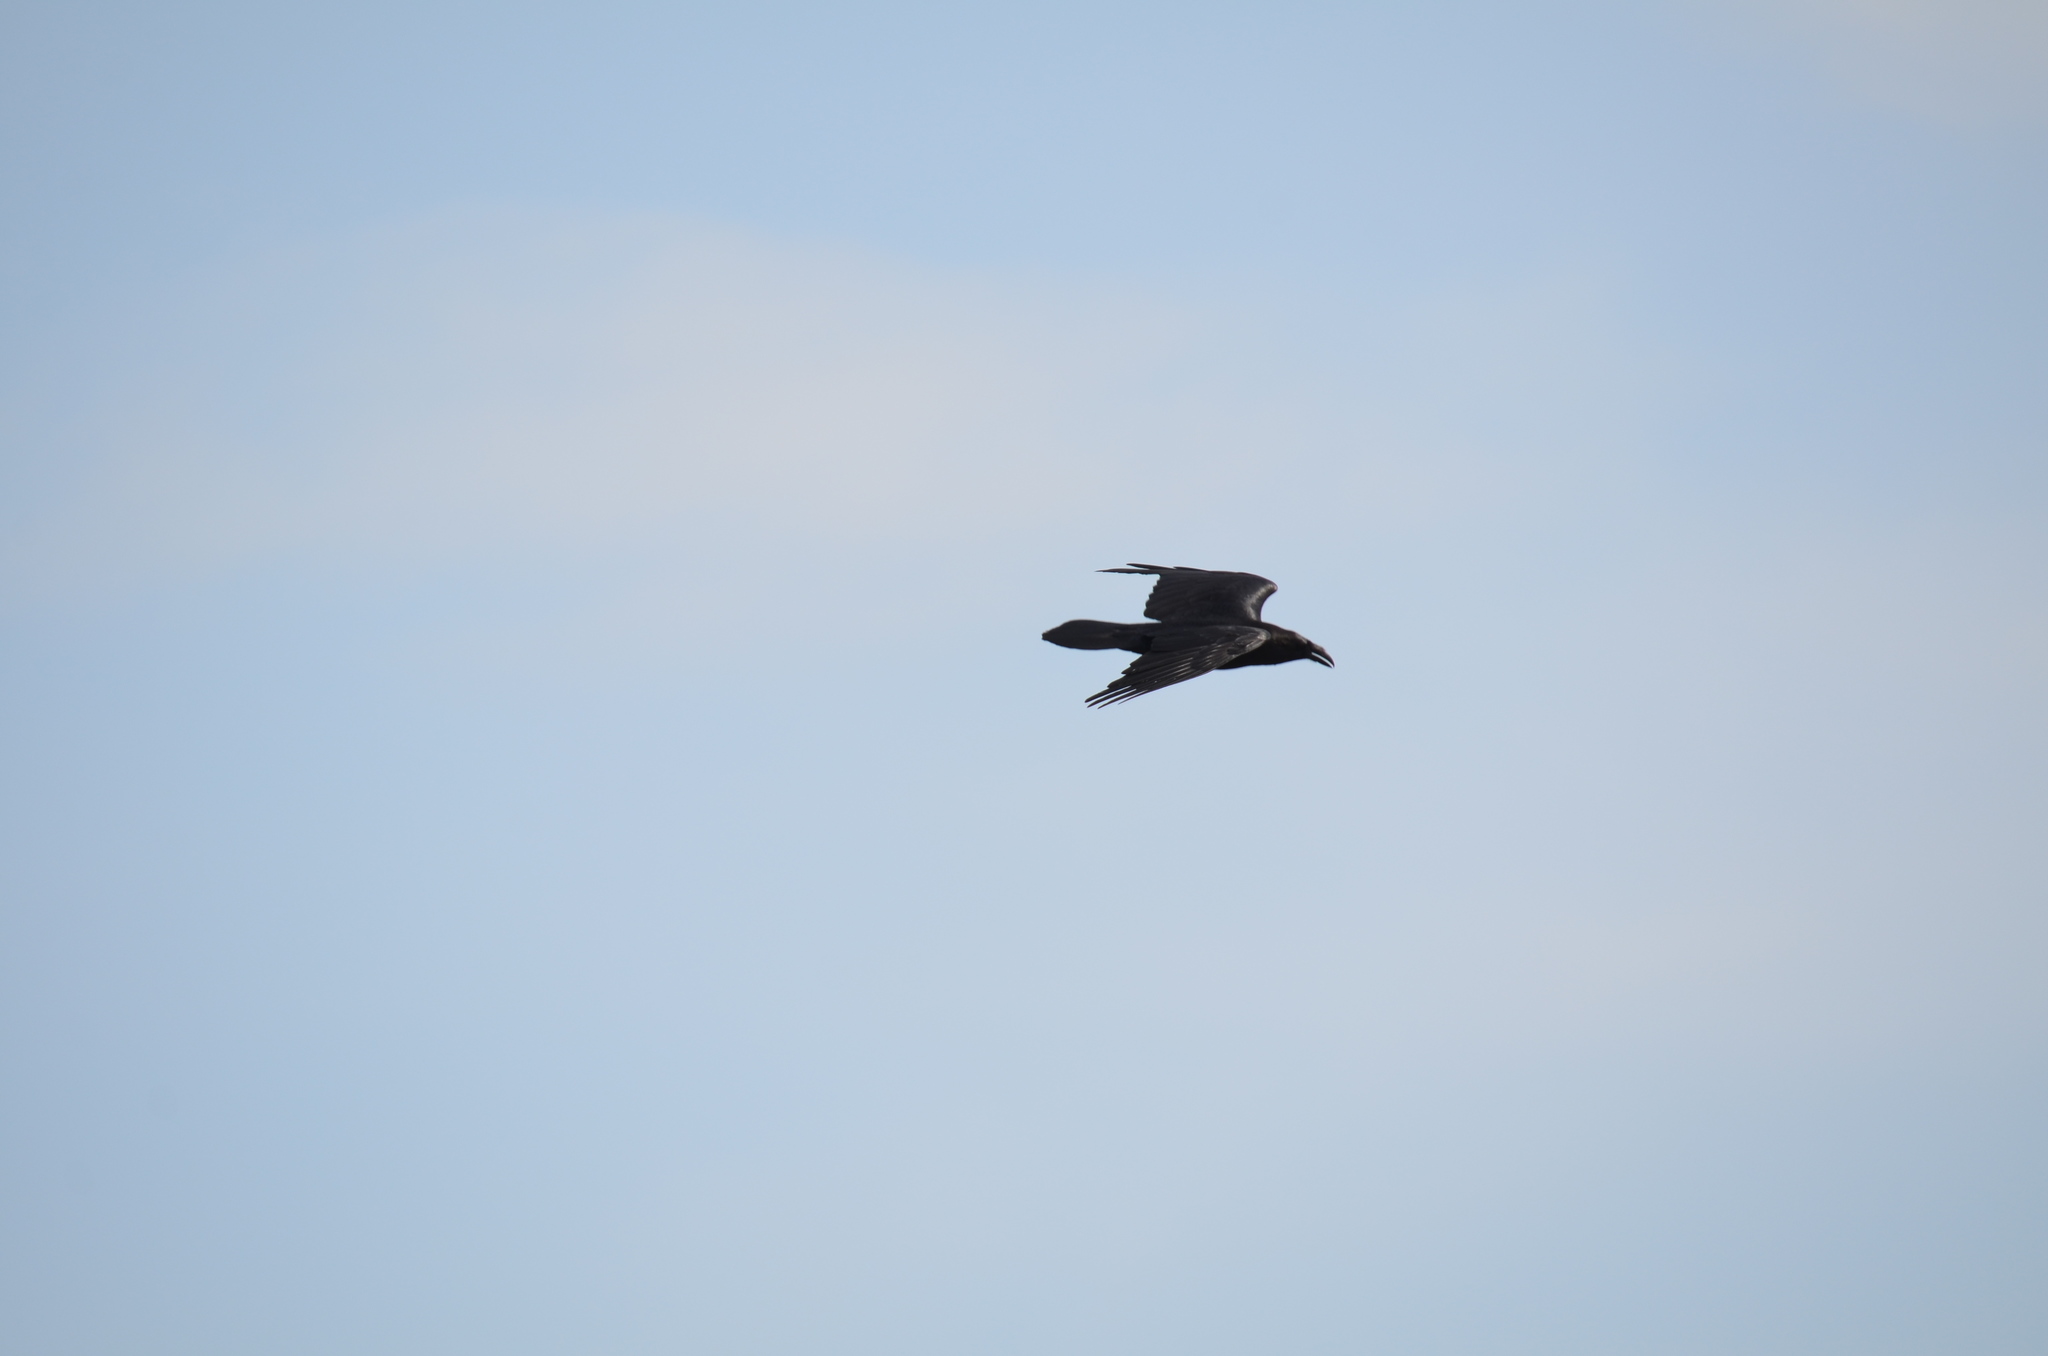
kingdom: Animalia
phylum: Chordata
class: Aves
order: Passeriformes
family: Corvidae
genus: Corvus
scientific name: Corvus corax
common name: Common raven
